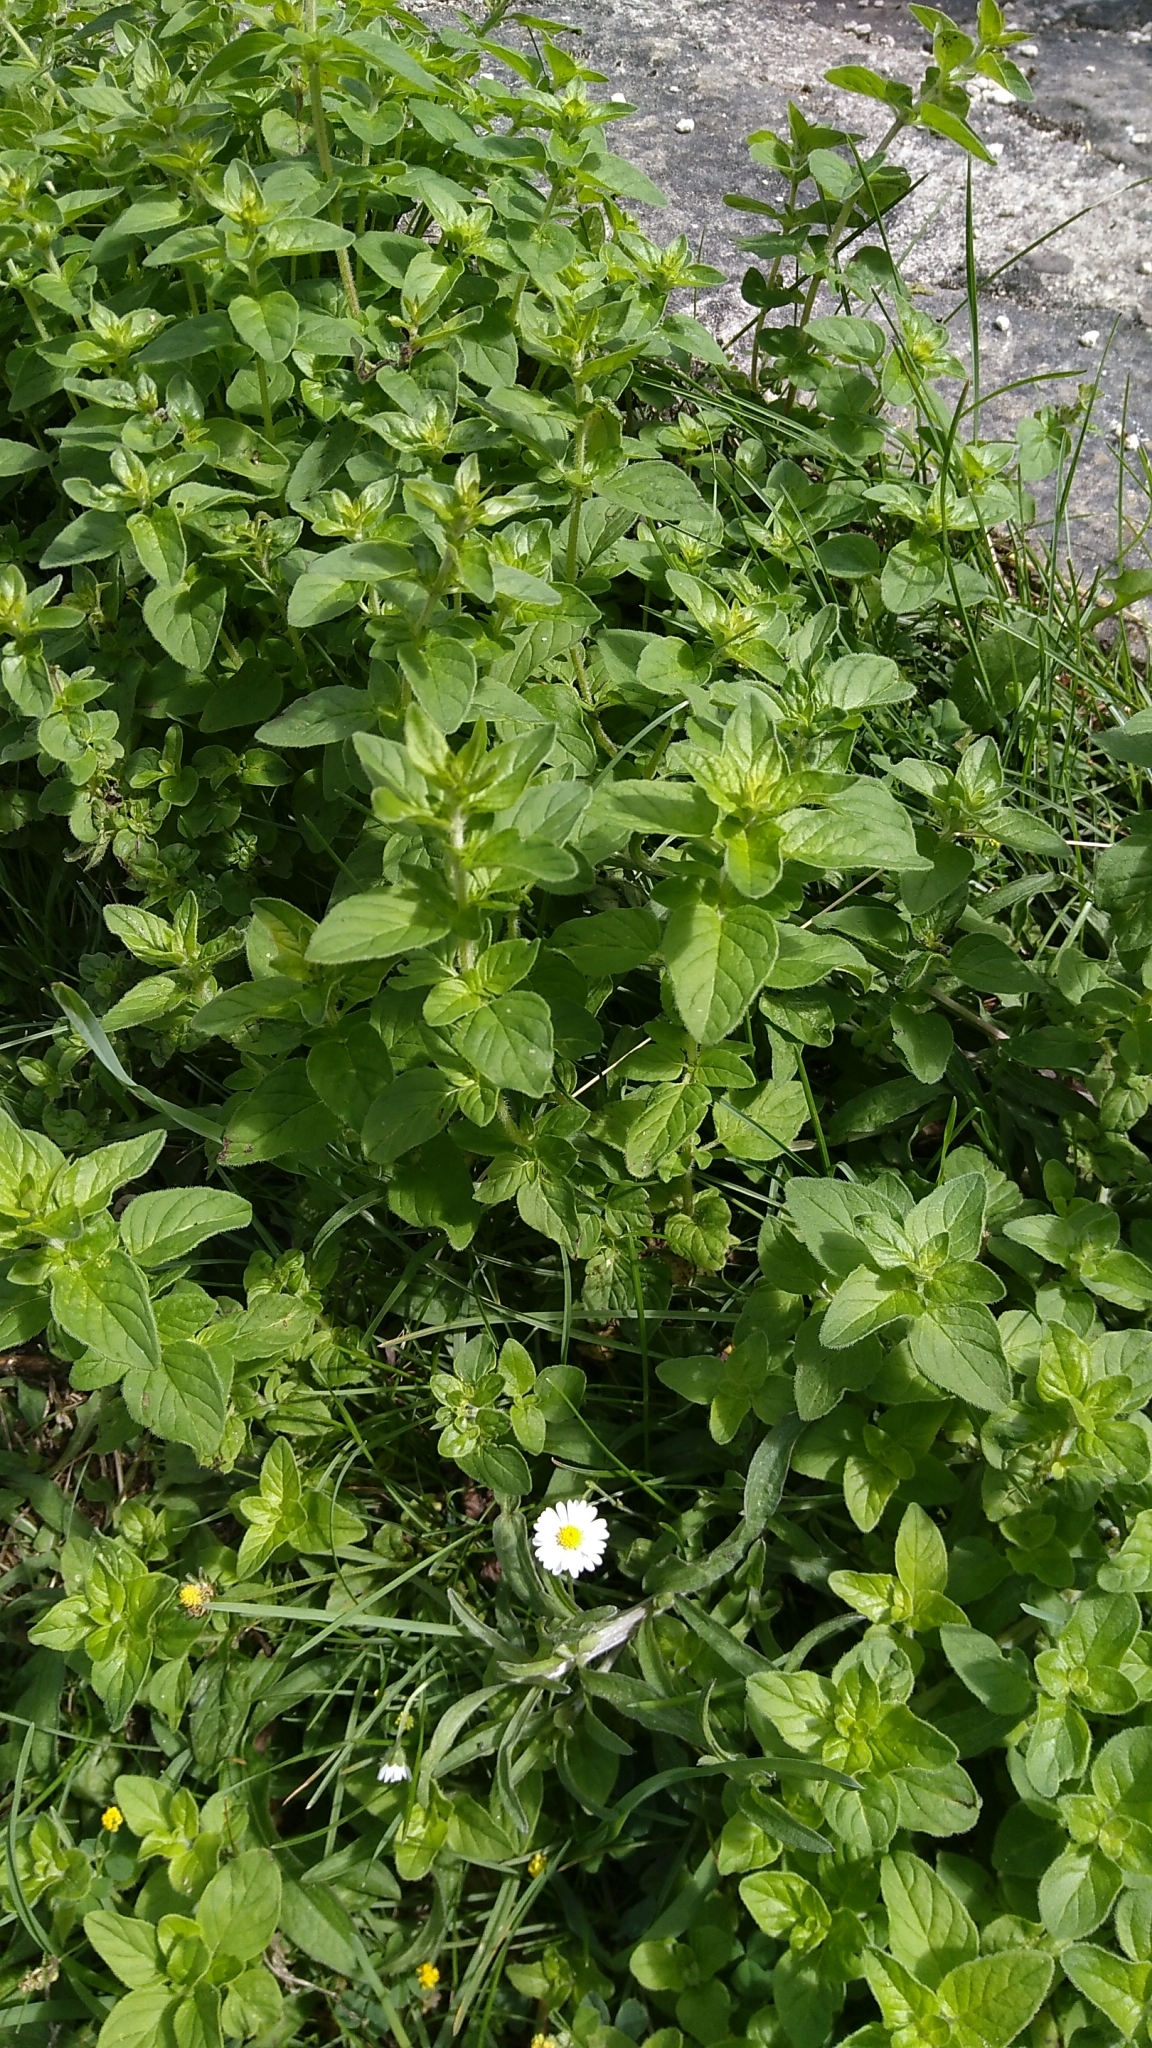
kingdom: Plantae
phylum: Tracheophyta
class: Magnoliopsida
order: Lamiales
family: Lamiaceae
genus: Origanum
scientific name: Origanum vulgare
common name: Wild marjoram
